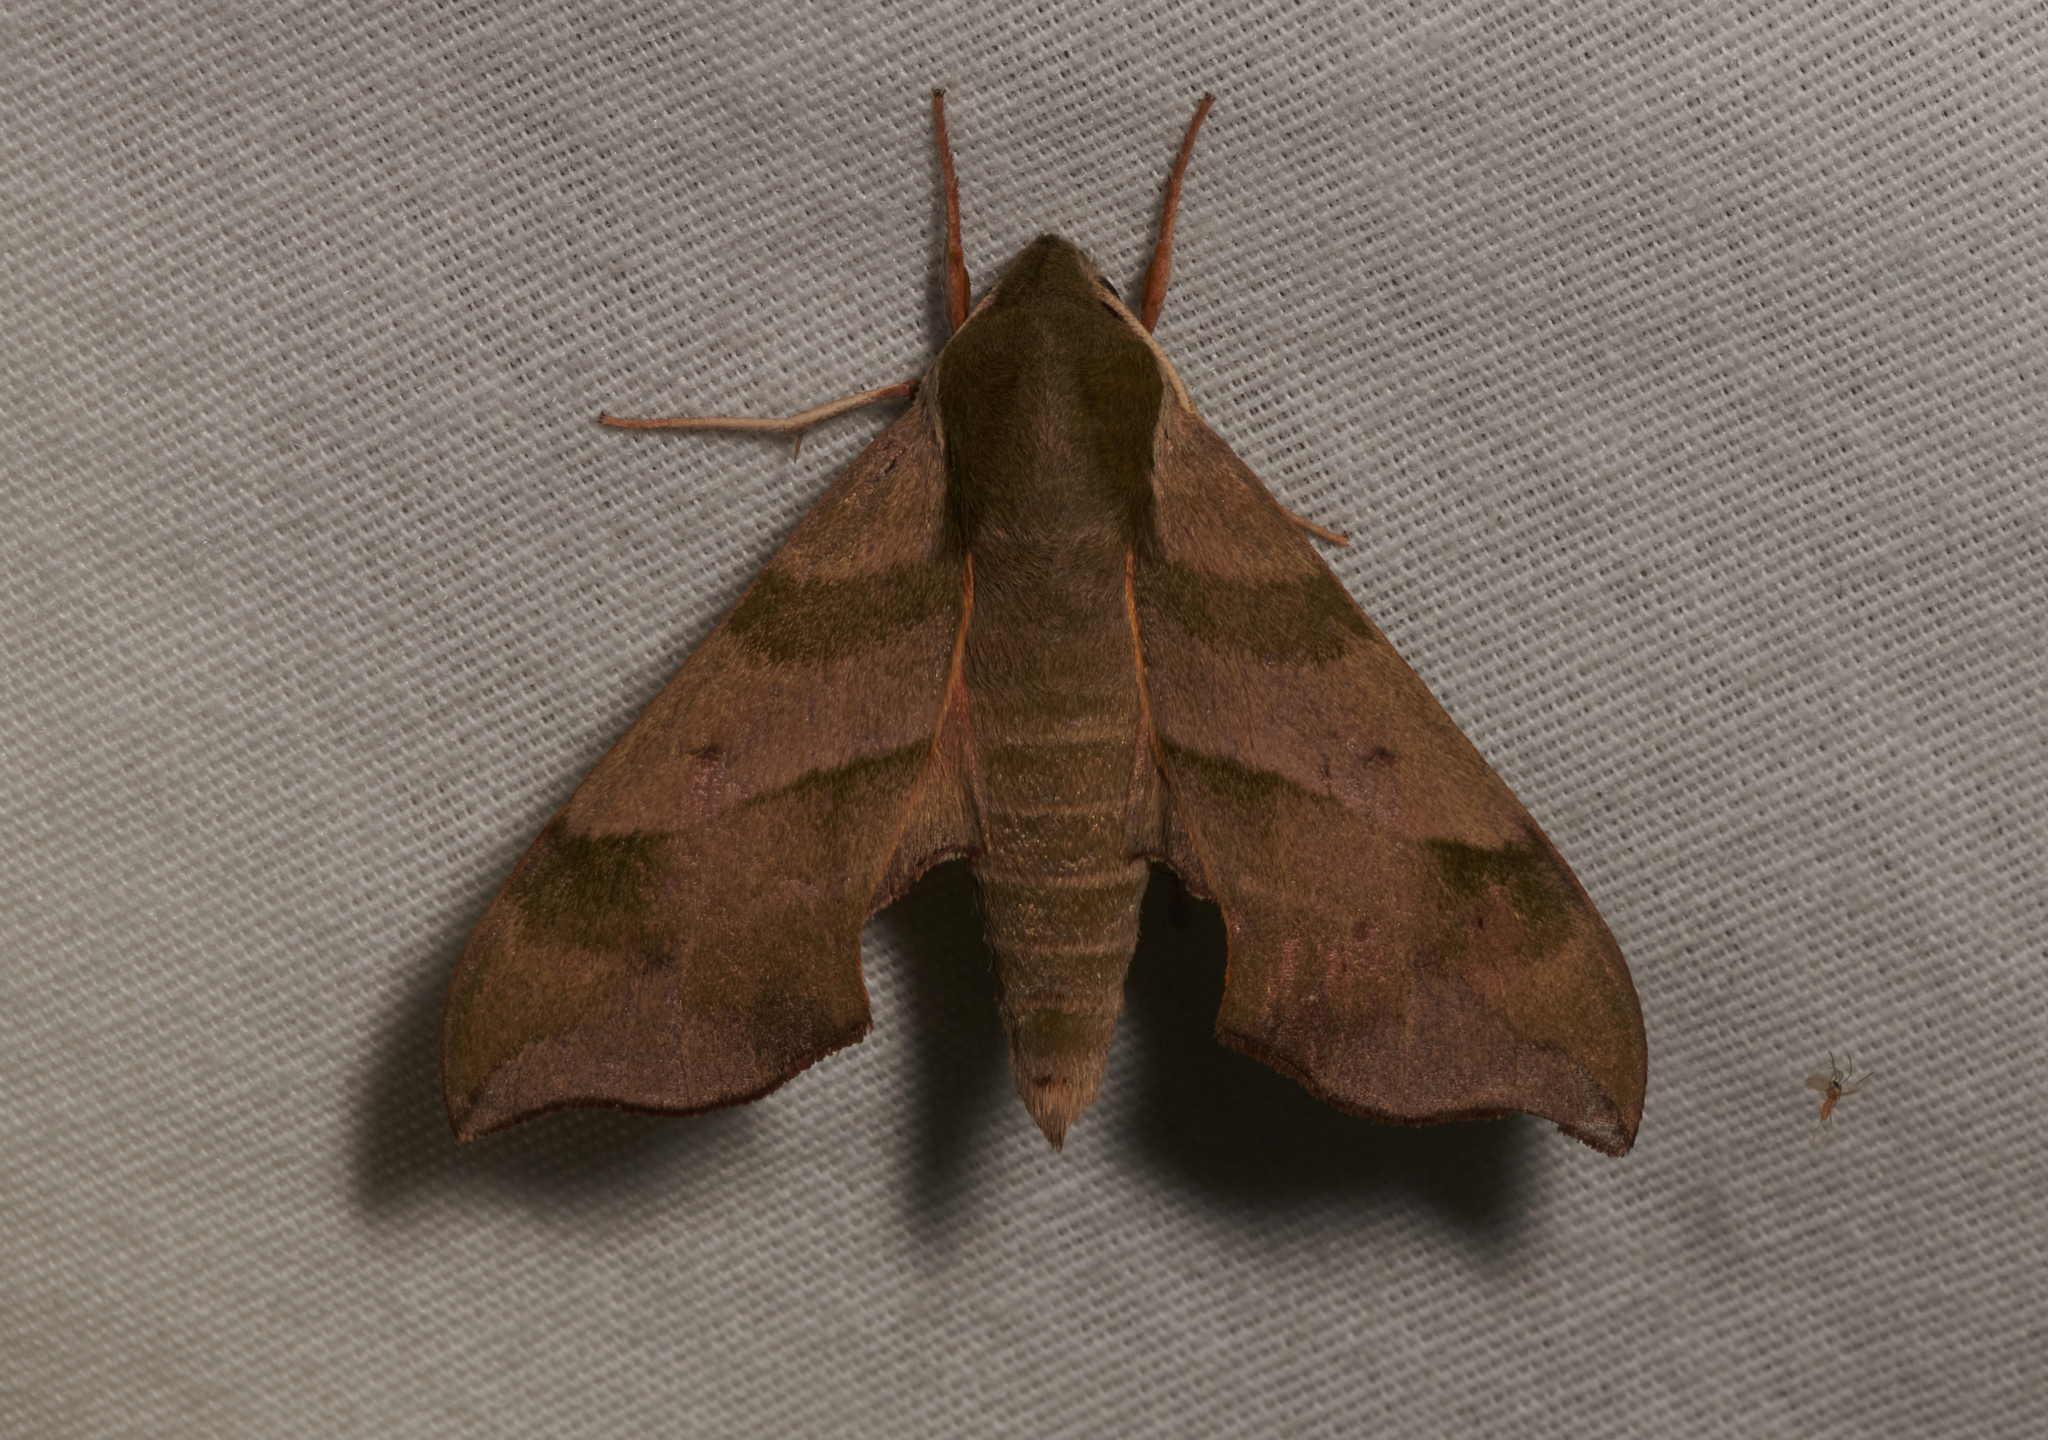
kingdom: Animalia
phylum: Arthropoda
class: Insecta
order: Lepidoptera
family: Sphingidae
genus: Darapsa
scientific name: Darapsa myron
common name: Hog sphinx
